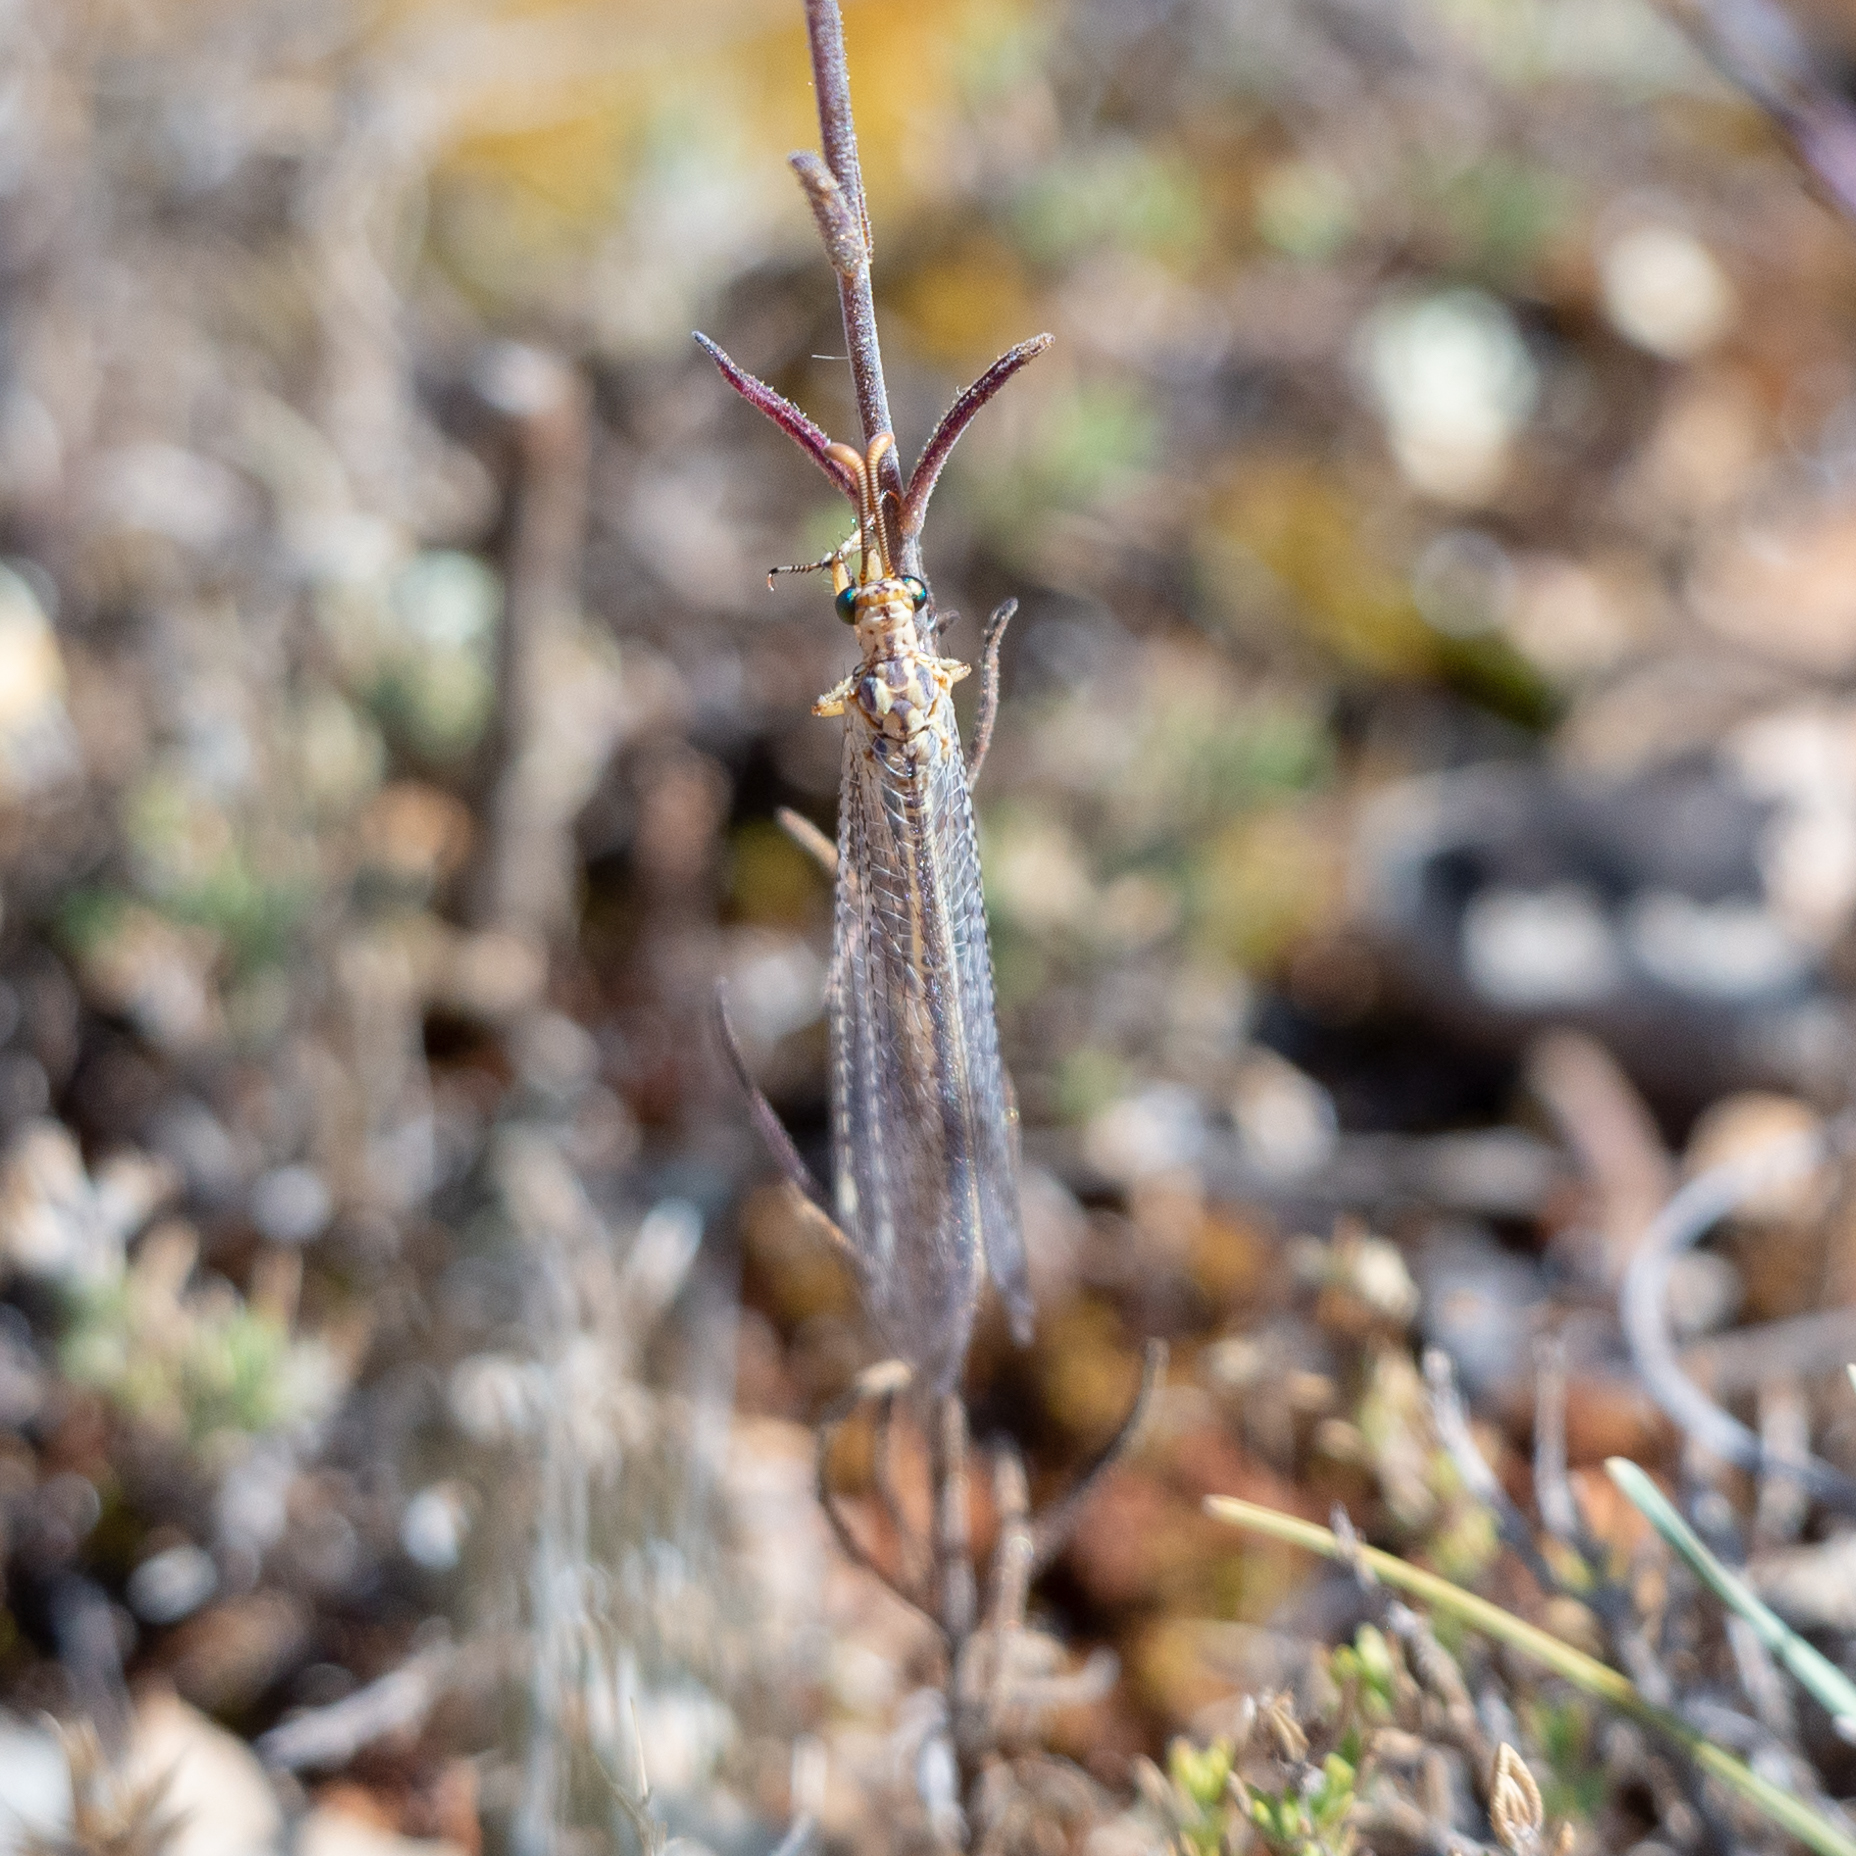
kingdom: Animalia
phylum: Arthropoda
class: Insecta
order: Neuroptera
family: Myrmeleontidae
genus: Macronemurus
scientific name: Macronemurus appendiculatus
